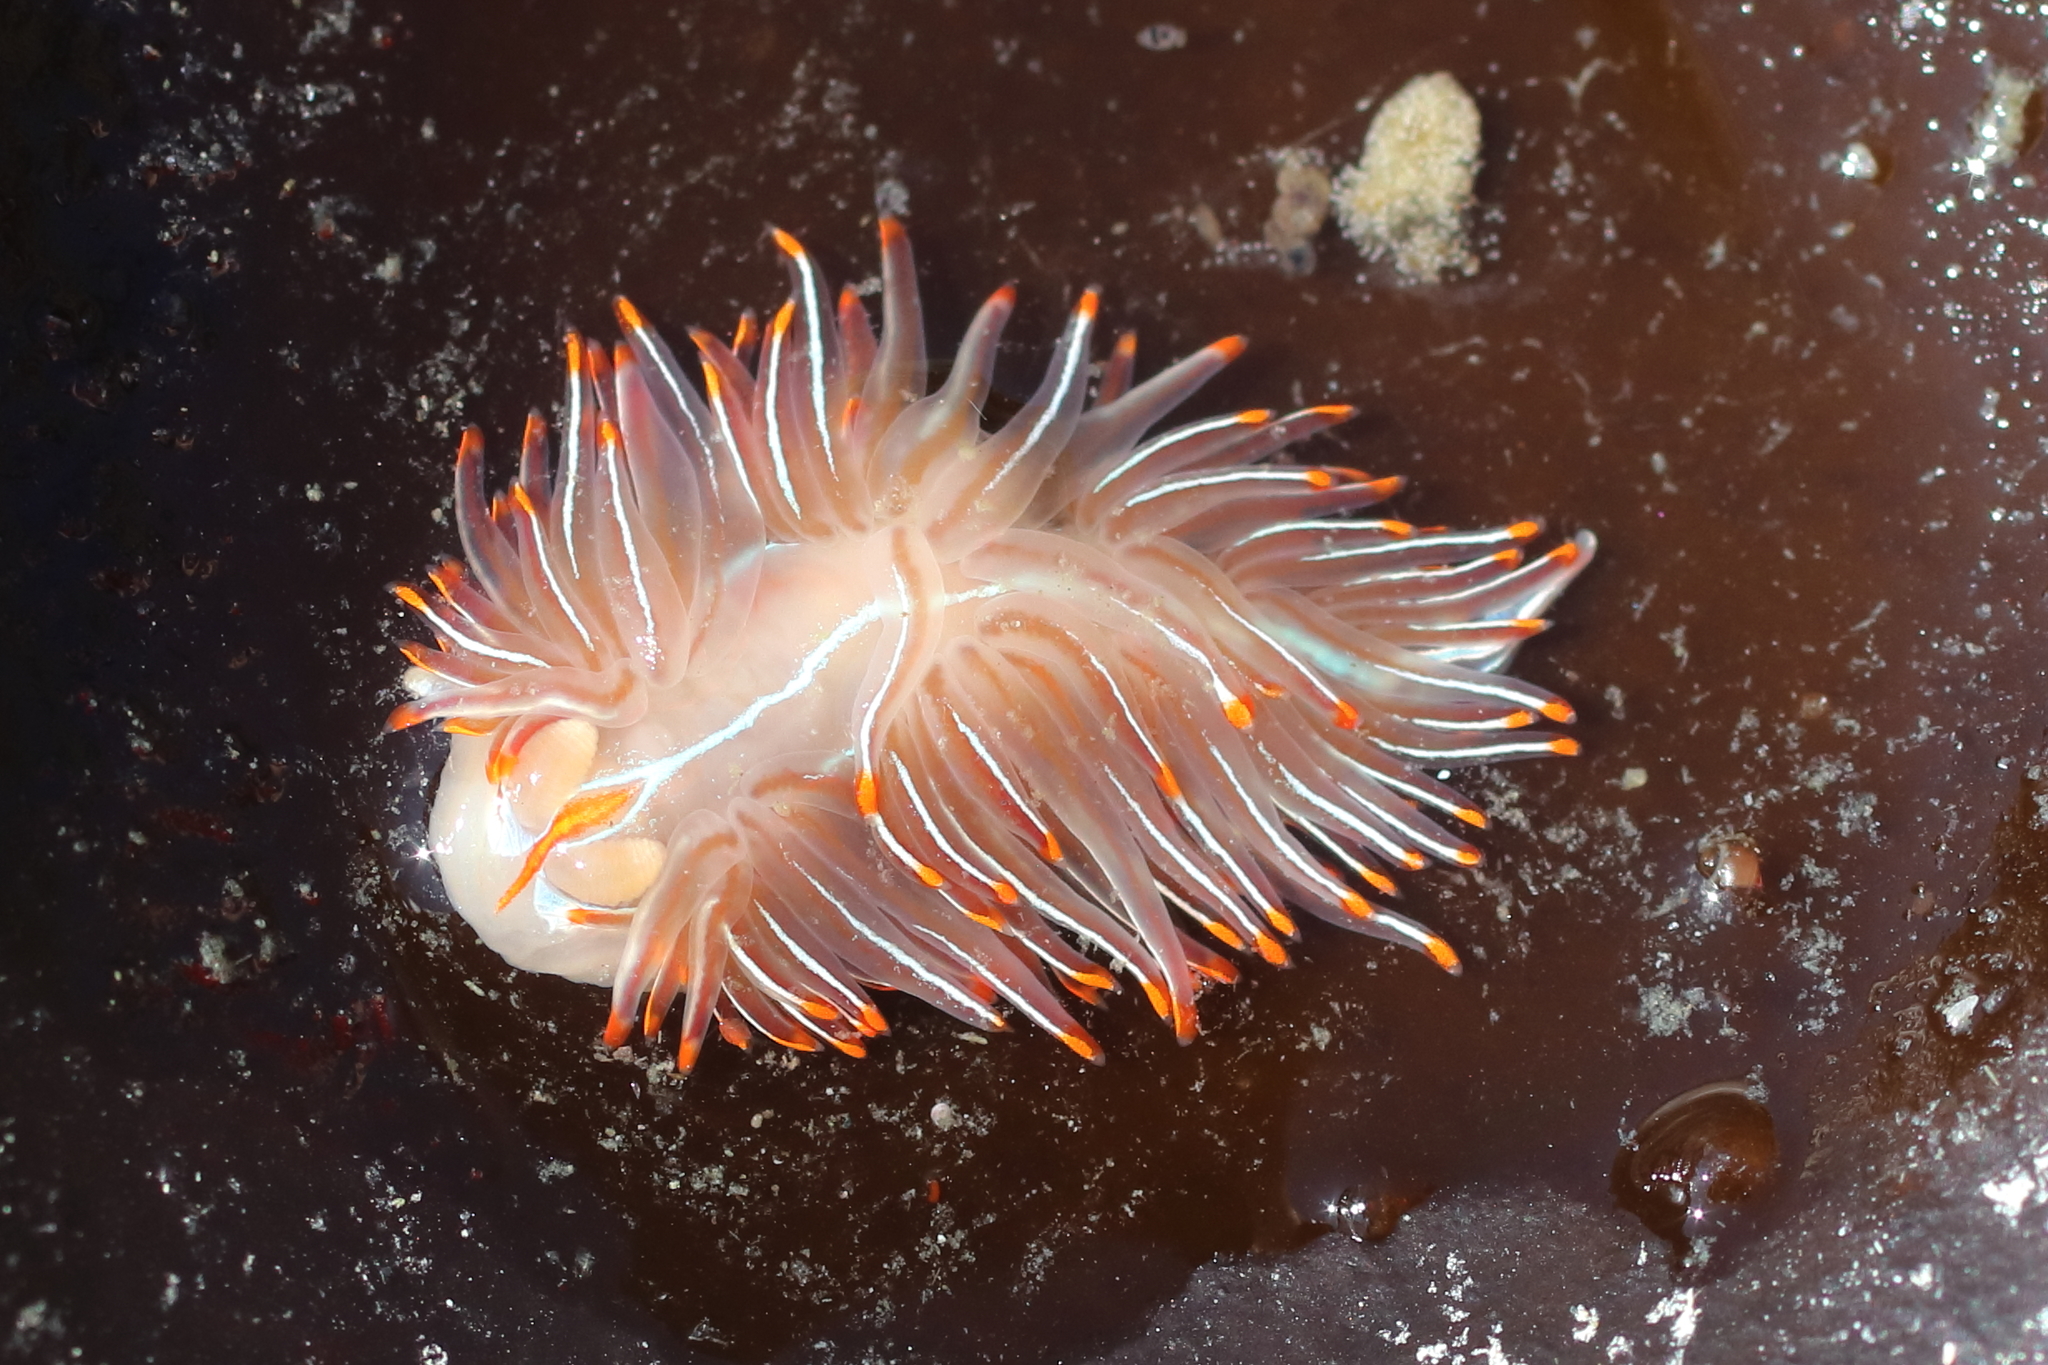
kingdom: Animalia
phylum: Mollusca
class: Gastropoda
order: Nudibranchia
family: Myrrhinidae
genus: Hermissenda
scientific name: Hermissenda crassicornis
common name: Hermissenda
